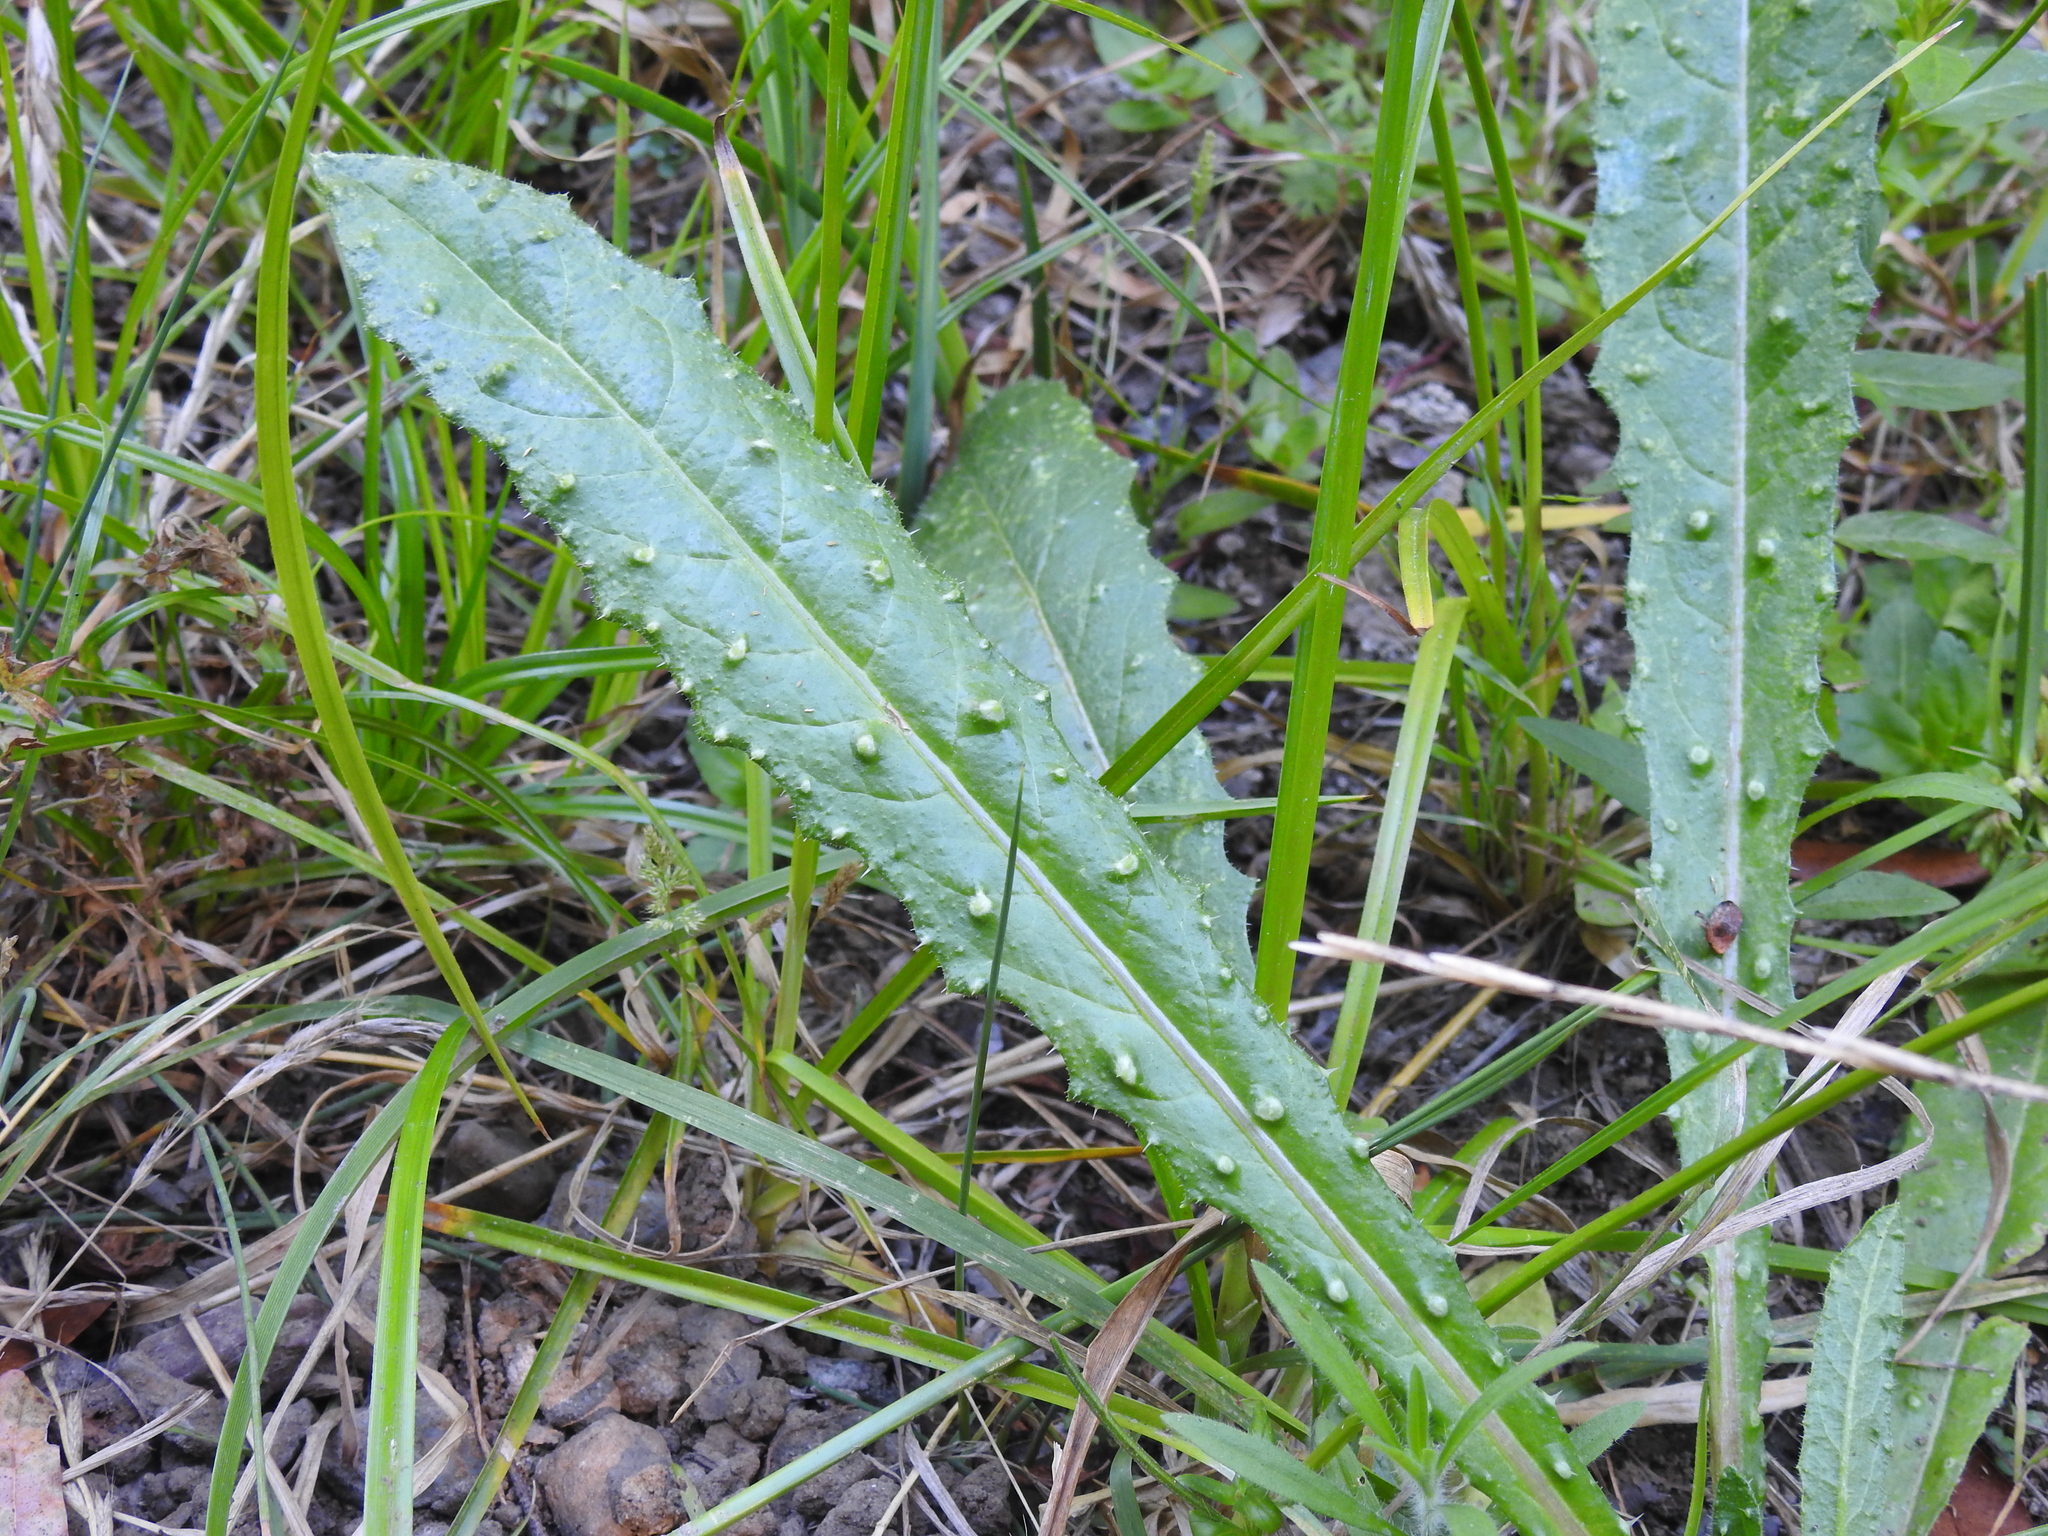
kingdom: Plantae
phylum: Tracheophyta
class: Magnoliopsida
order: Asterales
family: Asteraceae
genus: Helminthotheca
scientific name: Helminthotheca echioides
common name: Ox-tongue
